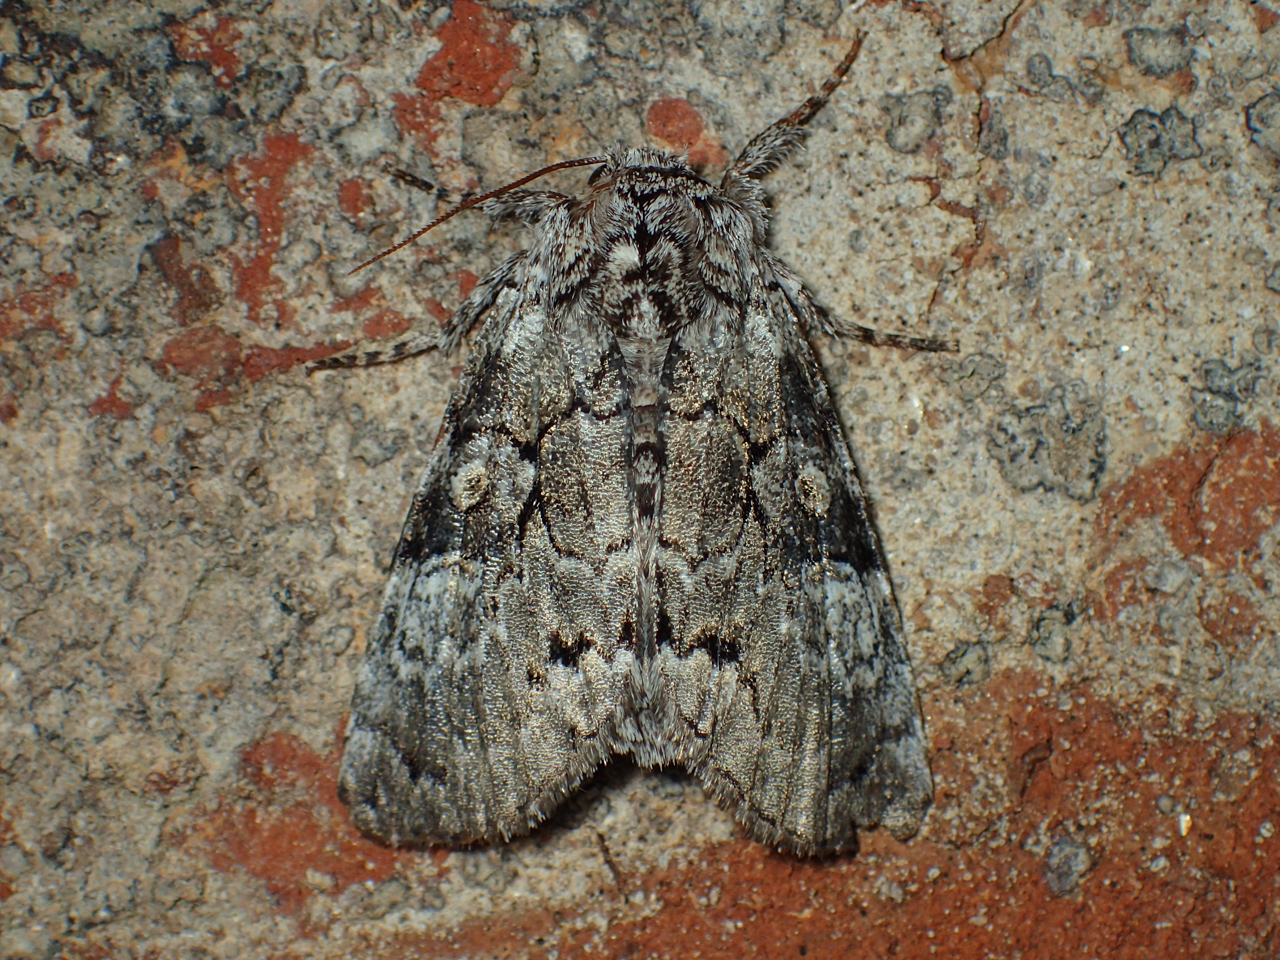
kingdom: Animalia
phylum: Arthropoda
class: Insecta
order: Lepidoptera
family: Noctuidae
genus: Charadra
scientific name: Charadra deridens
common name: Marbled tuffet
